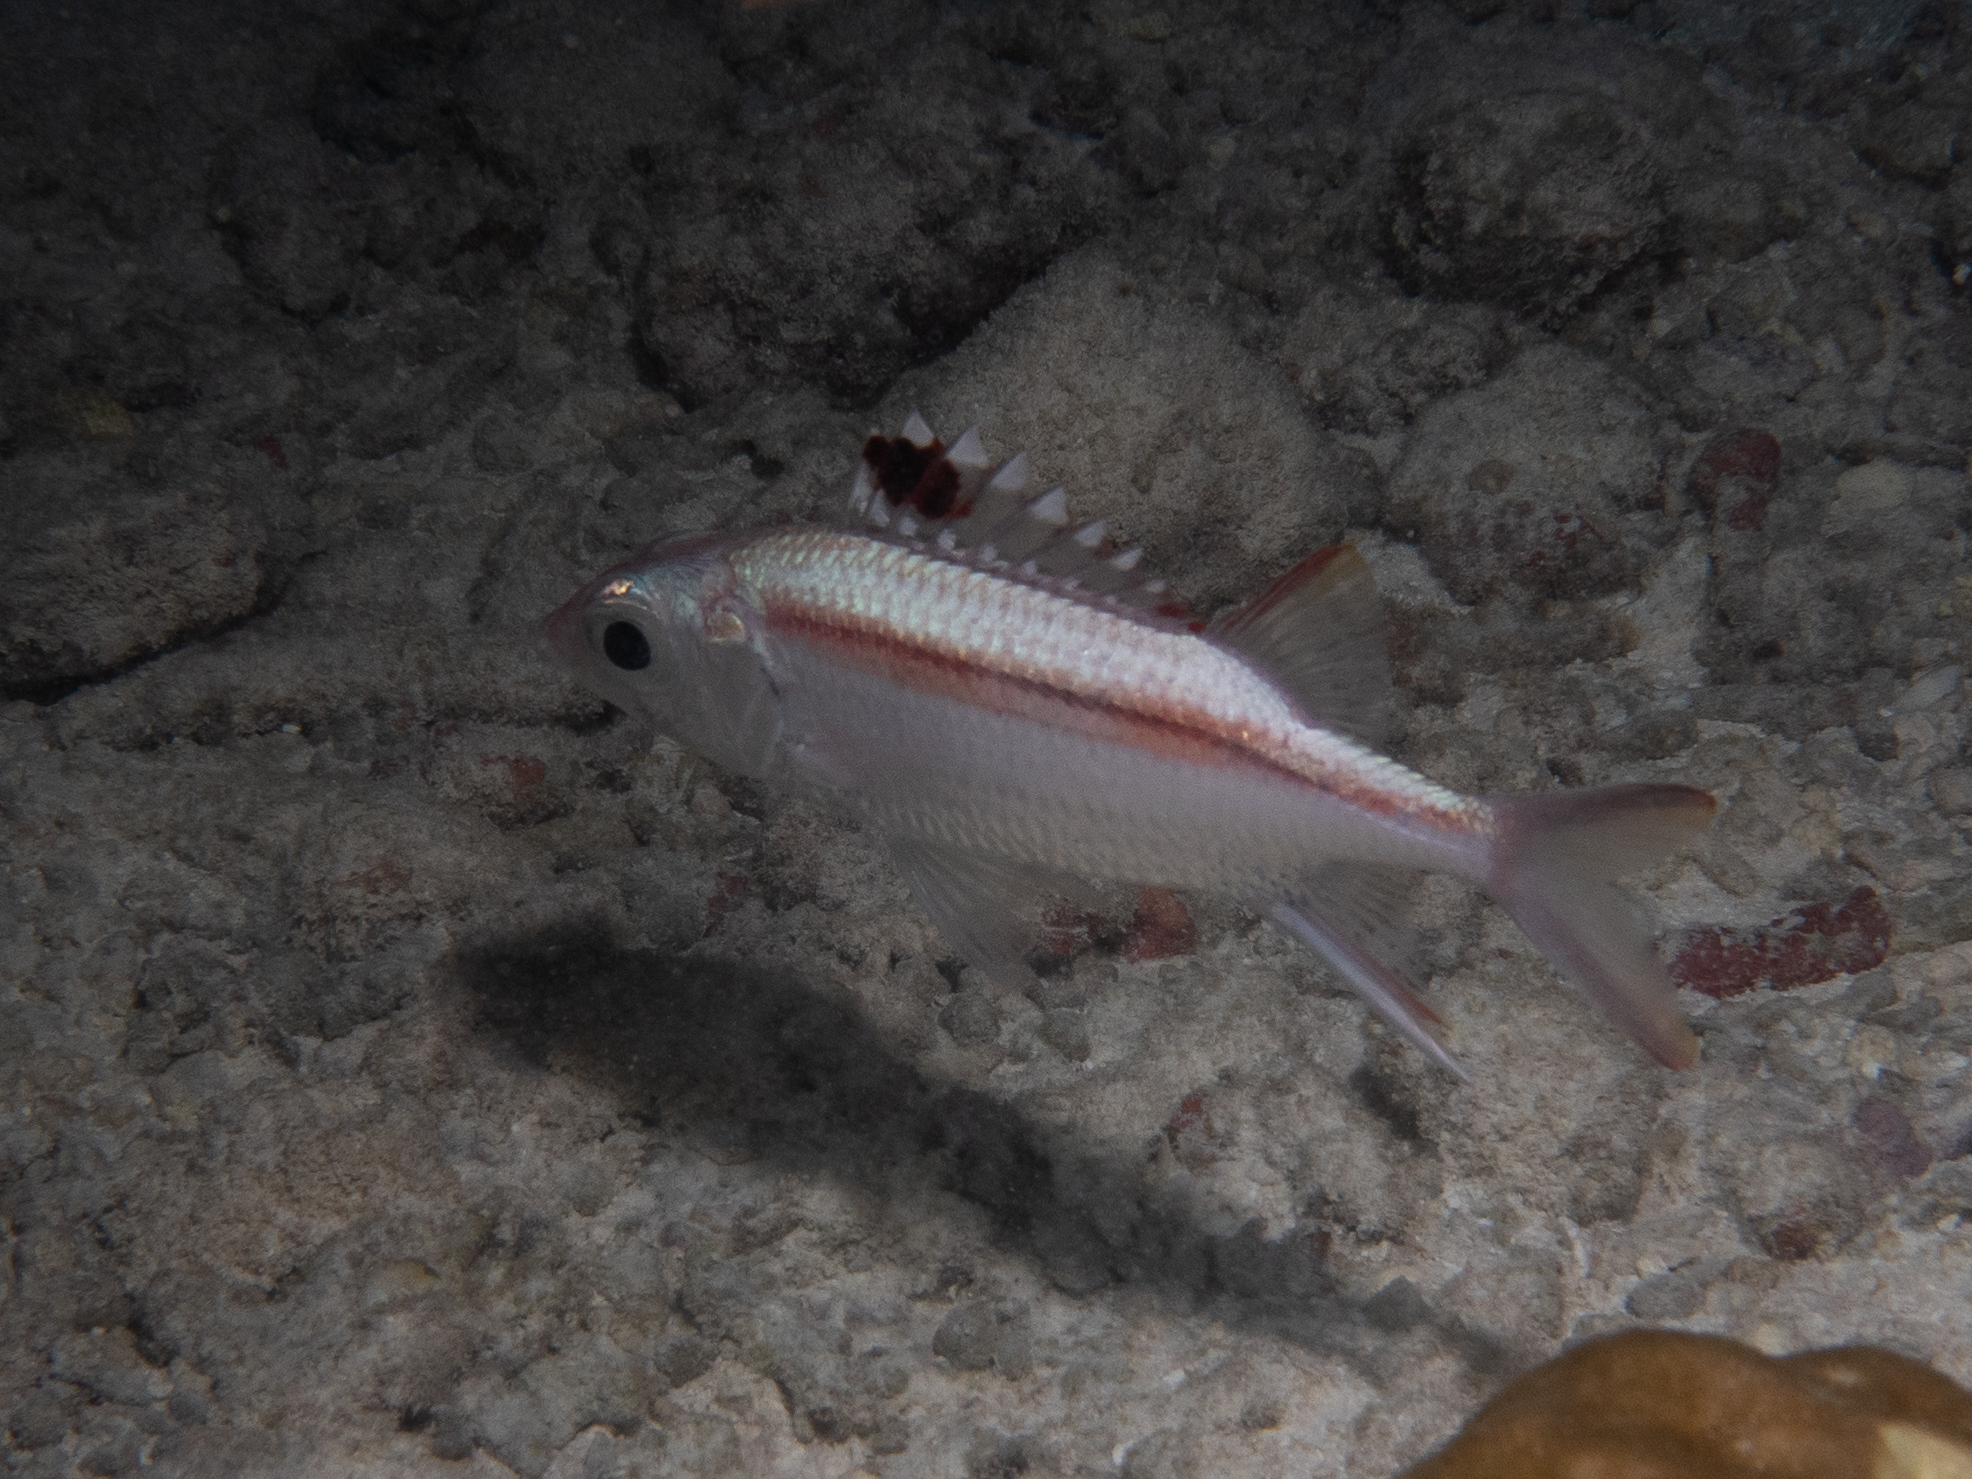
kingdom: Animalia
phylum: Chordata
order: Beryciformes
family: Holocentridae
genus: Neoniphon
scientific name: Neoniphon sammara
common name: Sammara squirrelfish
